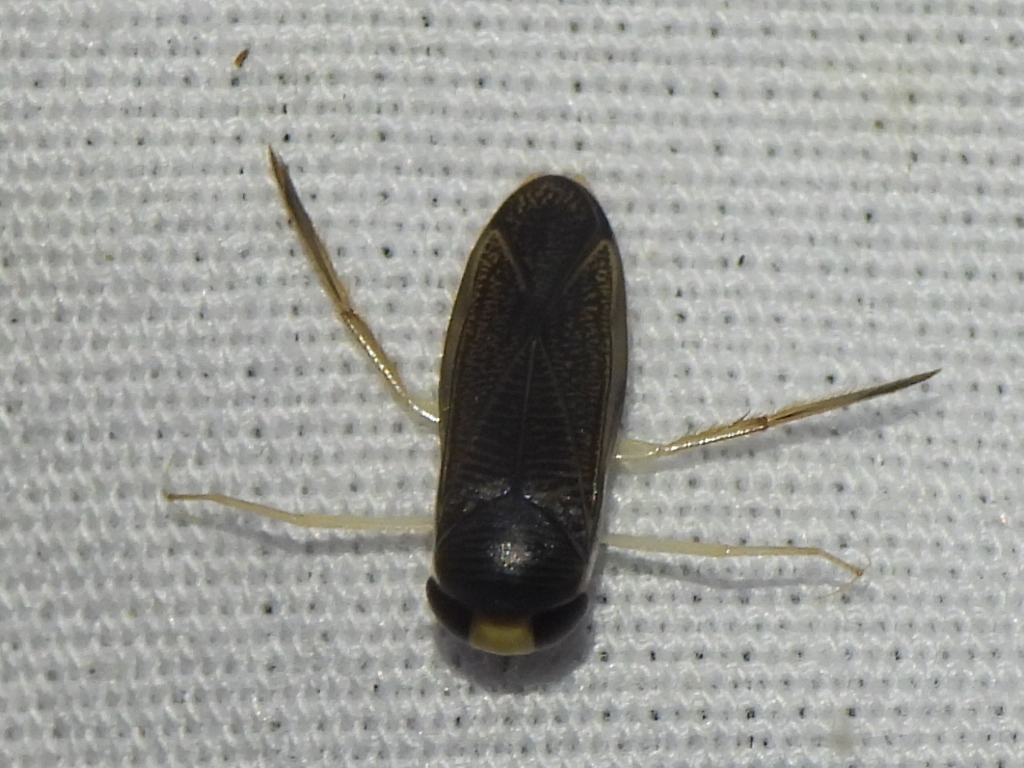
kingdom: Animalia
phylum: Arthropoda
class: Insecta
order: Hemiptera
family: Corixidae
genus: Sigara
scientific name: Sigara
